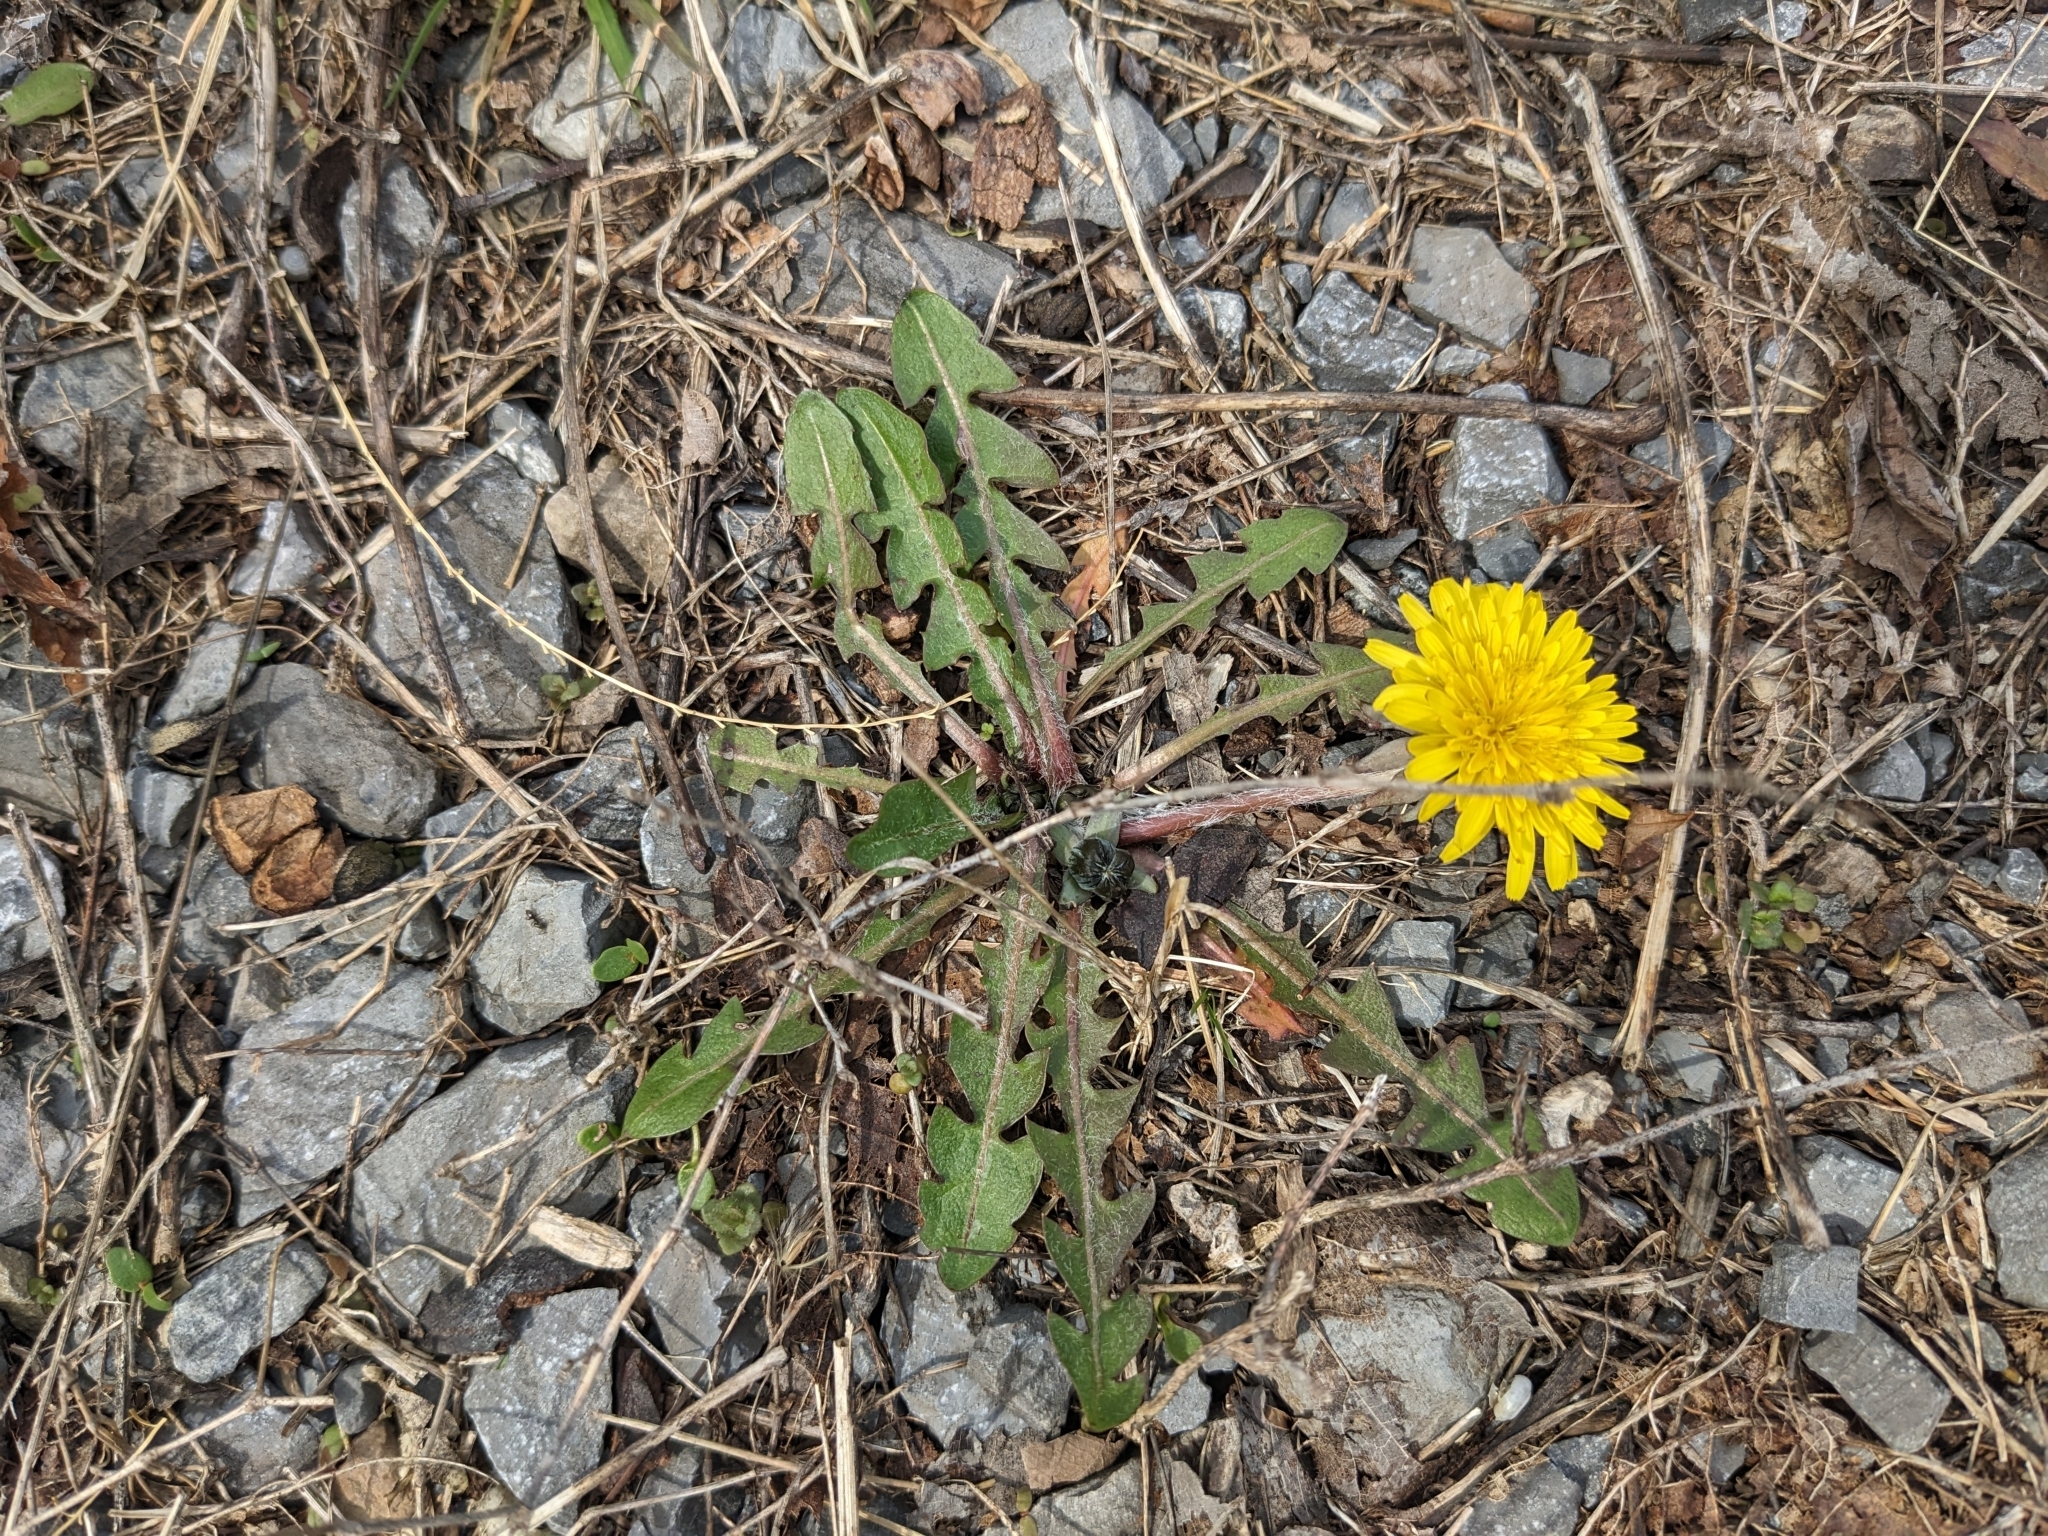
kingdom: Plantae
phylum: Tracheophyta
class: Magnoliopsida
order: Asterales
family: Asteraceae
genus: Taraxacum
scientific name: Taraxacum officinale
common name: Common dandelion
